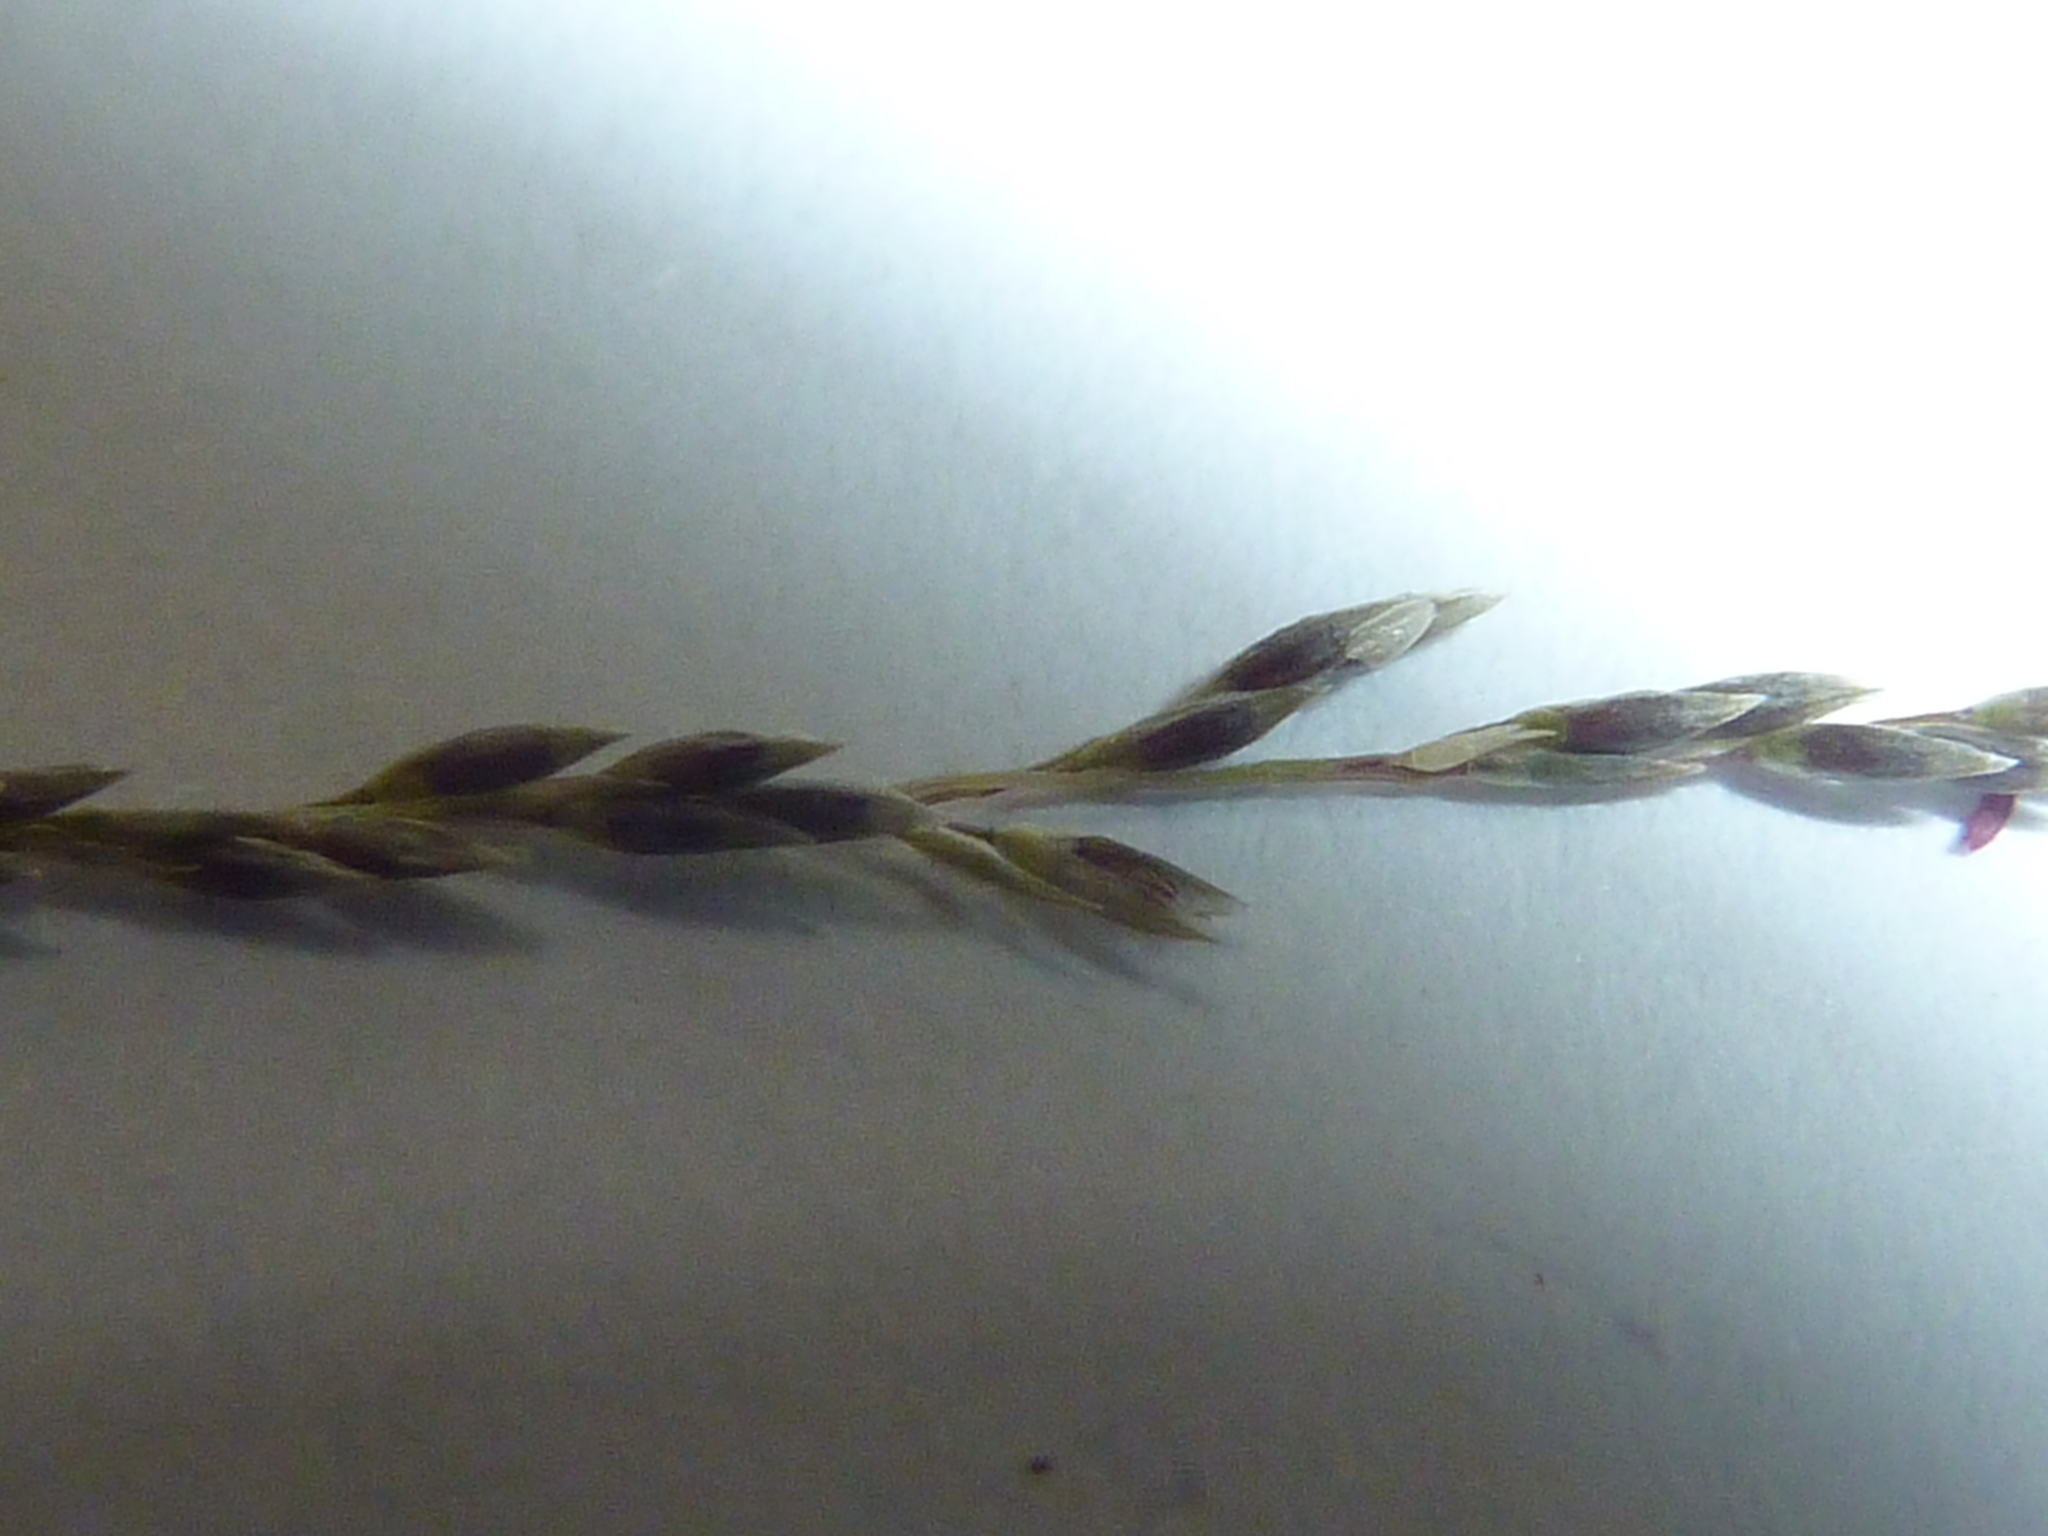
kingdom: Plantae
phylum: Tracheophyta
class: Liliopsida
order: Poales
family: Poaceae
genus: Sporobolus
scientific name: Sporobolus natalensis
